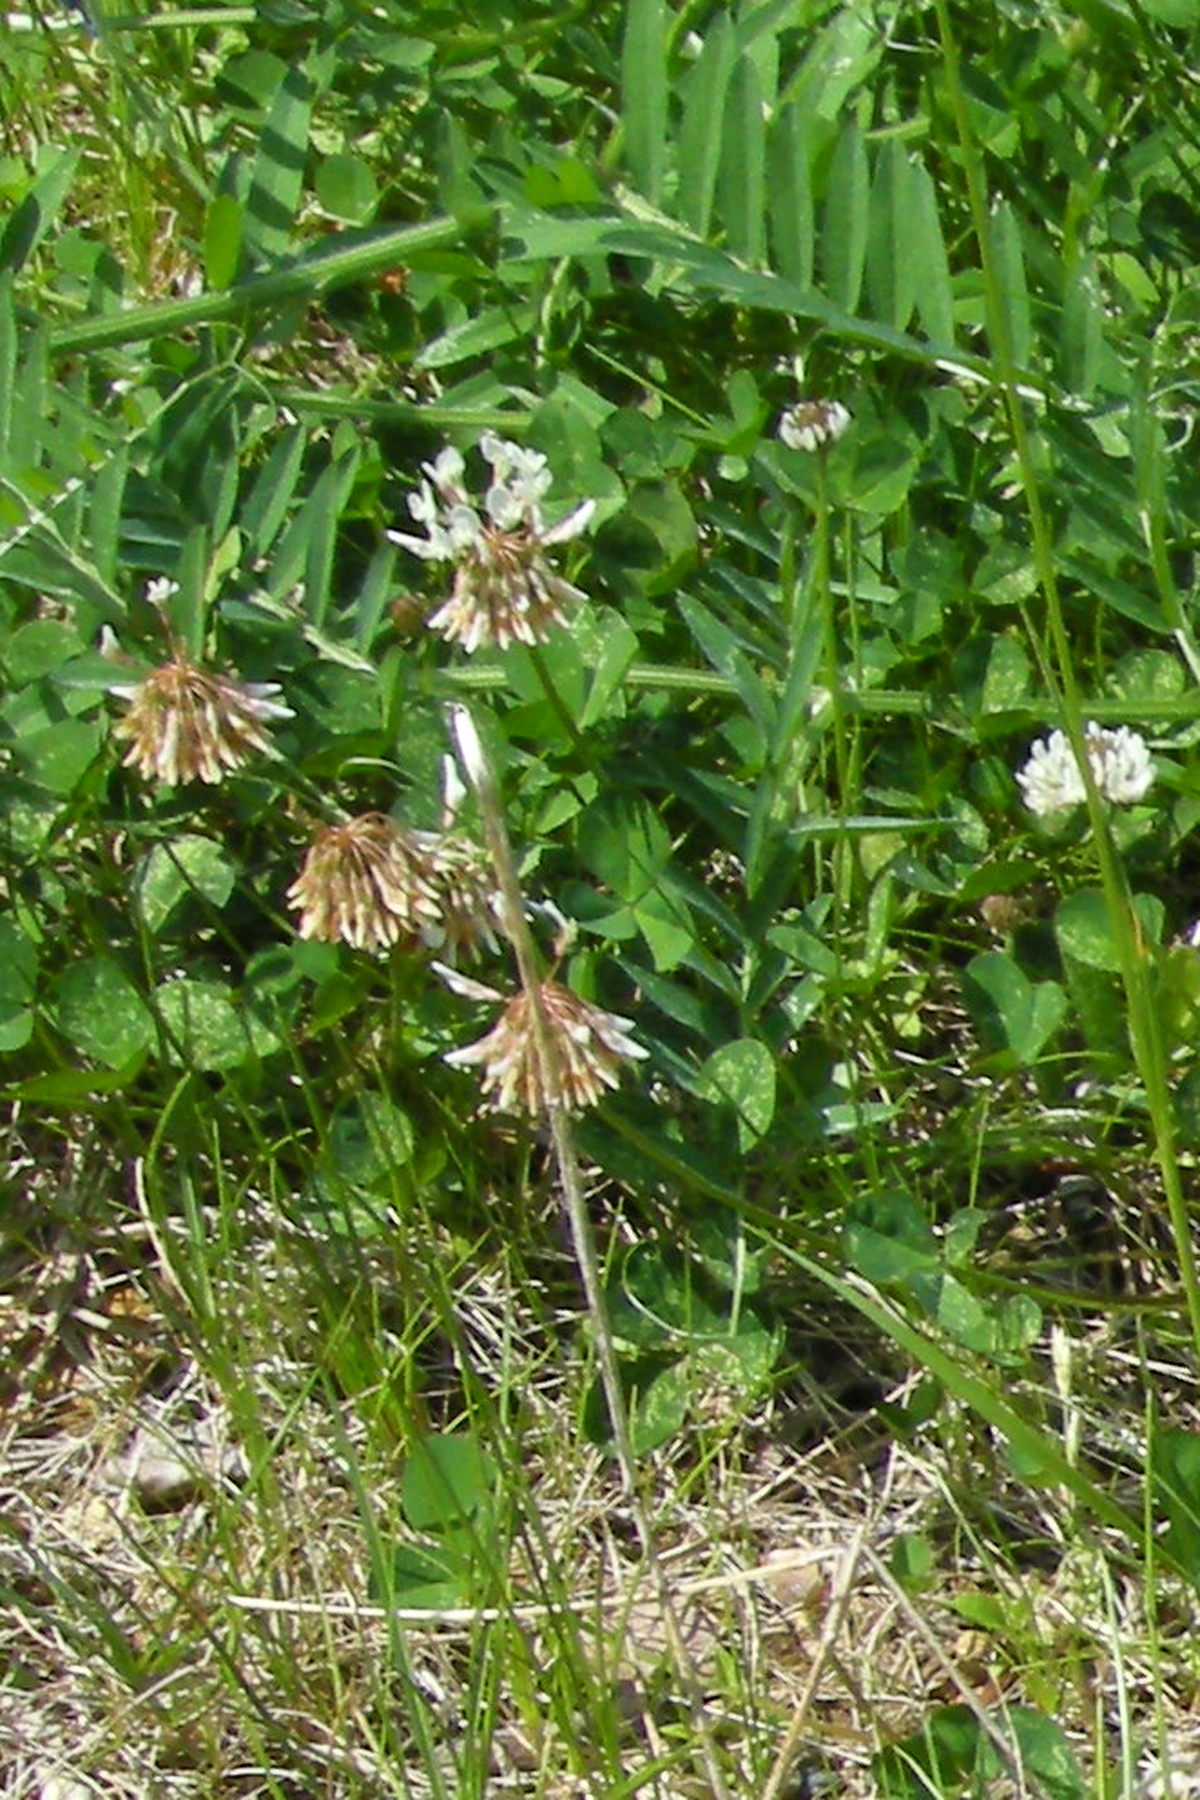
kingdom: Plantae
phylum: Tracheophyta
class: Magnoliopsida
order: Fabales
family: Fabaceae
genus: Trifolium
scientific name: Trifolium repens
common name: White clover
